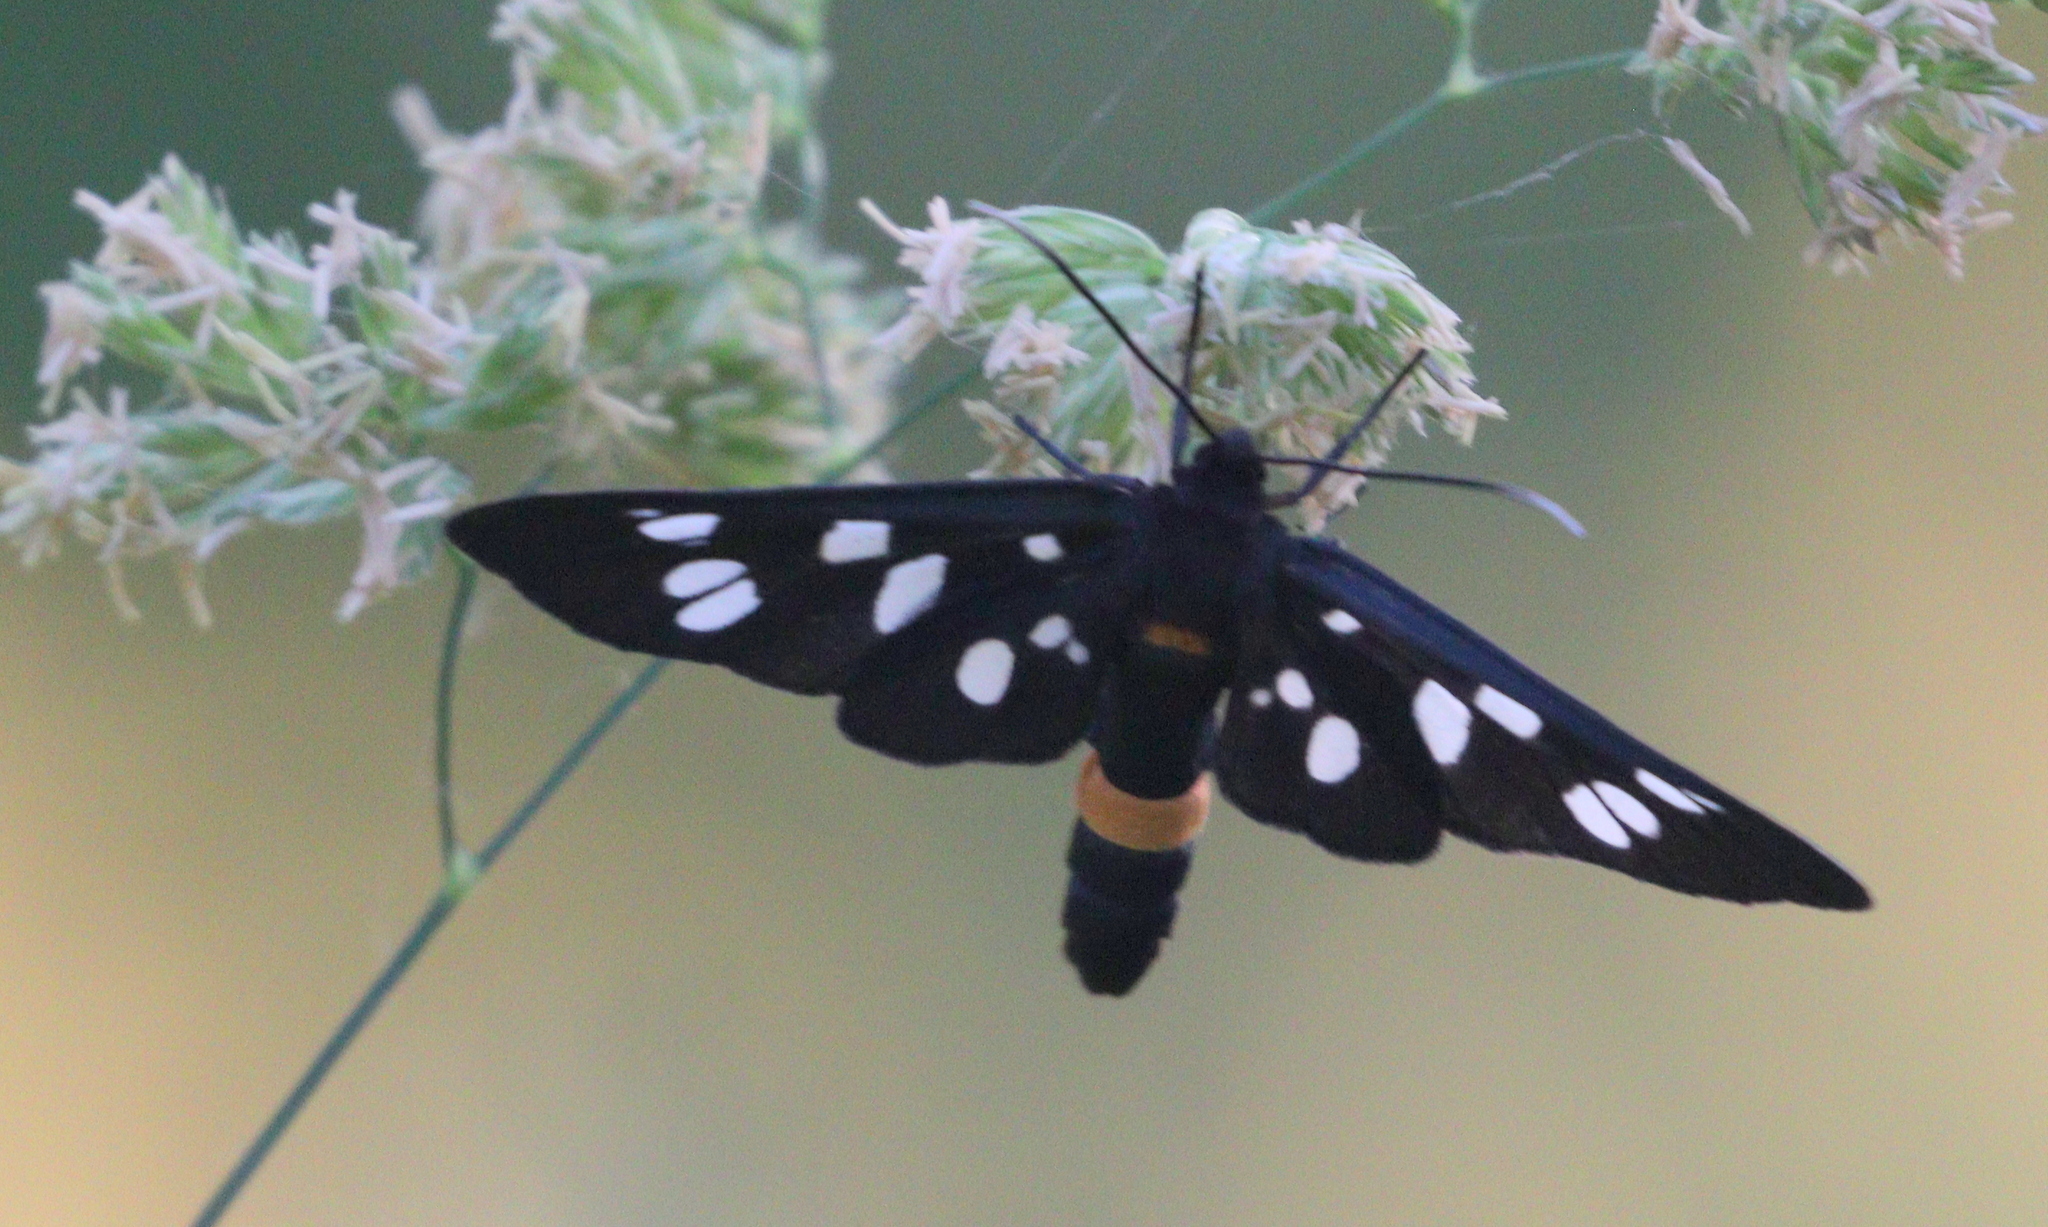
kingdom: Animalia
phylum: Arthropoda
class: Insecta
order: Lepidoptera
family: Erebidae
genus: Amata
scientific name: Amata phegea
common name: Nine-spotted
